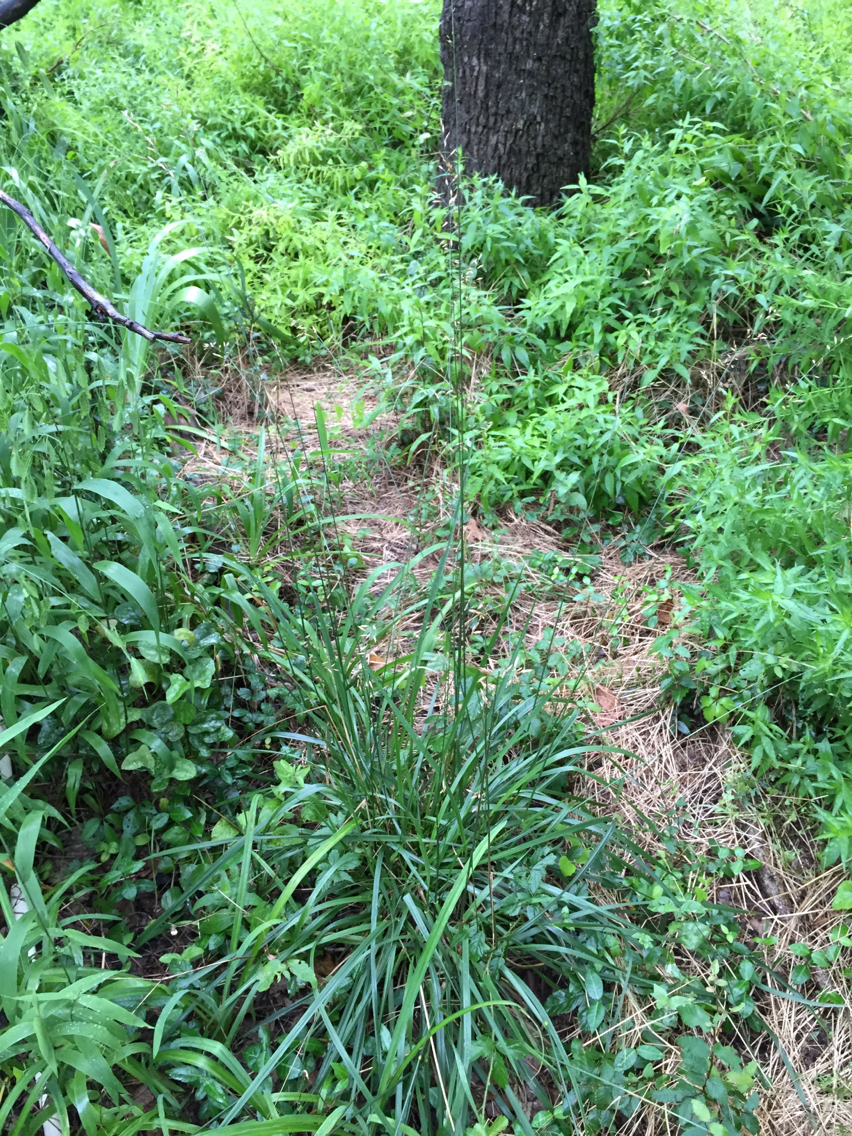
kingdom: Plantae
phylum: Tracheophyta
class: Liliopsida
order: Poales
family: Poaceae
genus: Lolium
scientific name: Lolium arundinaceum
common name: Reed fescue
